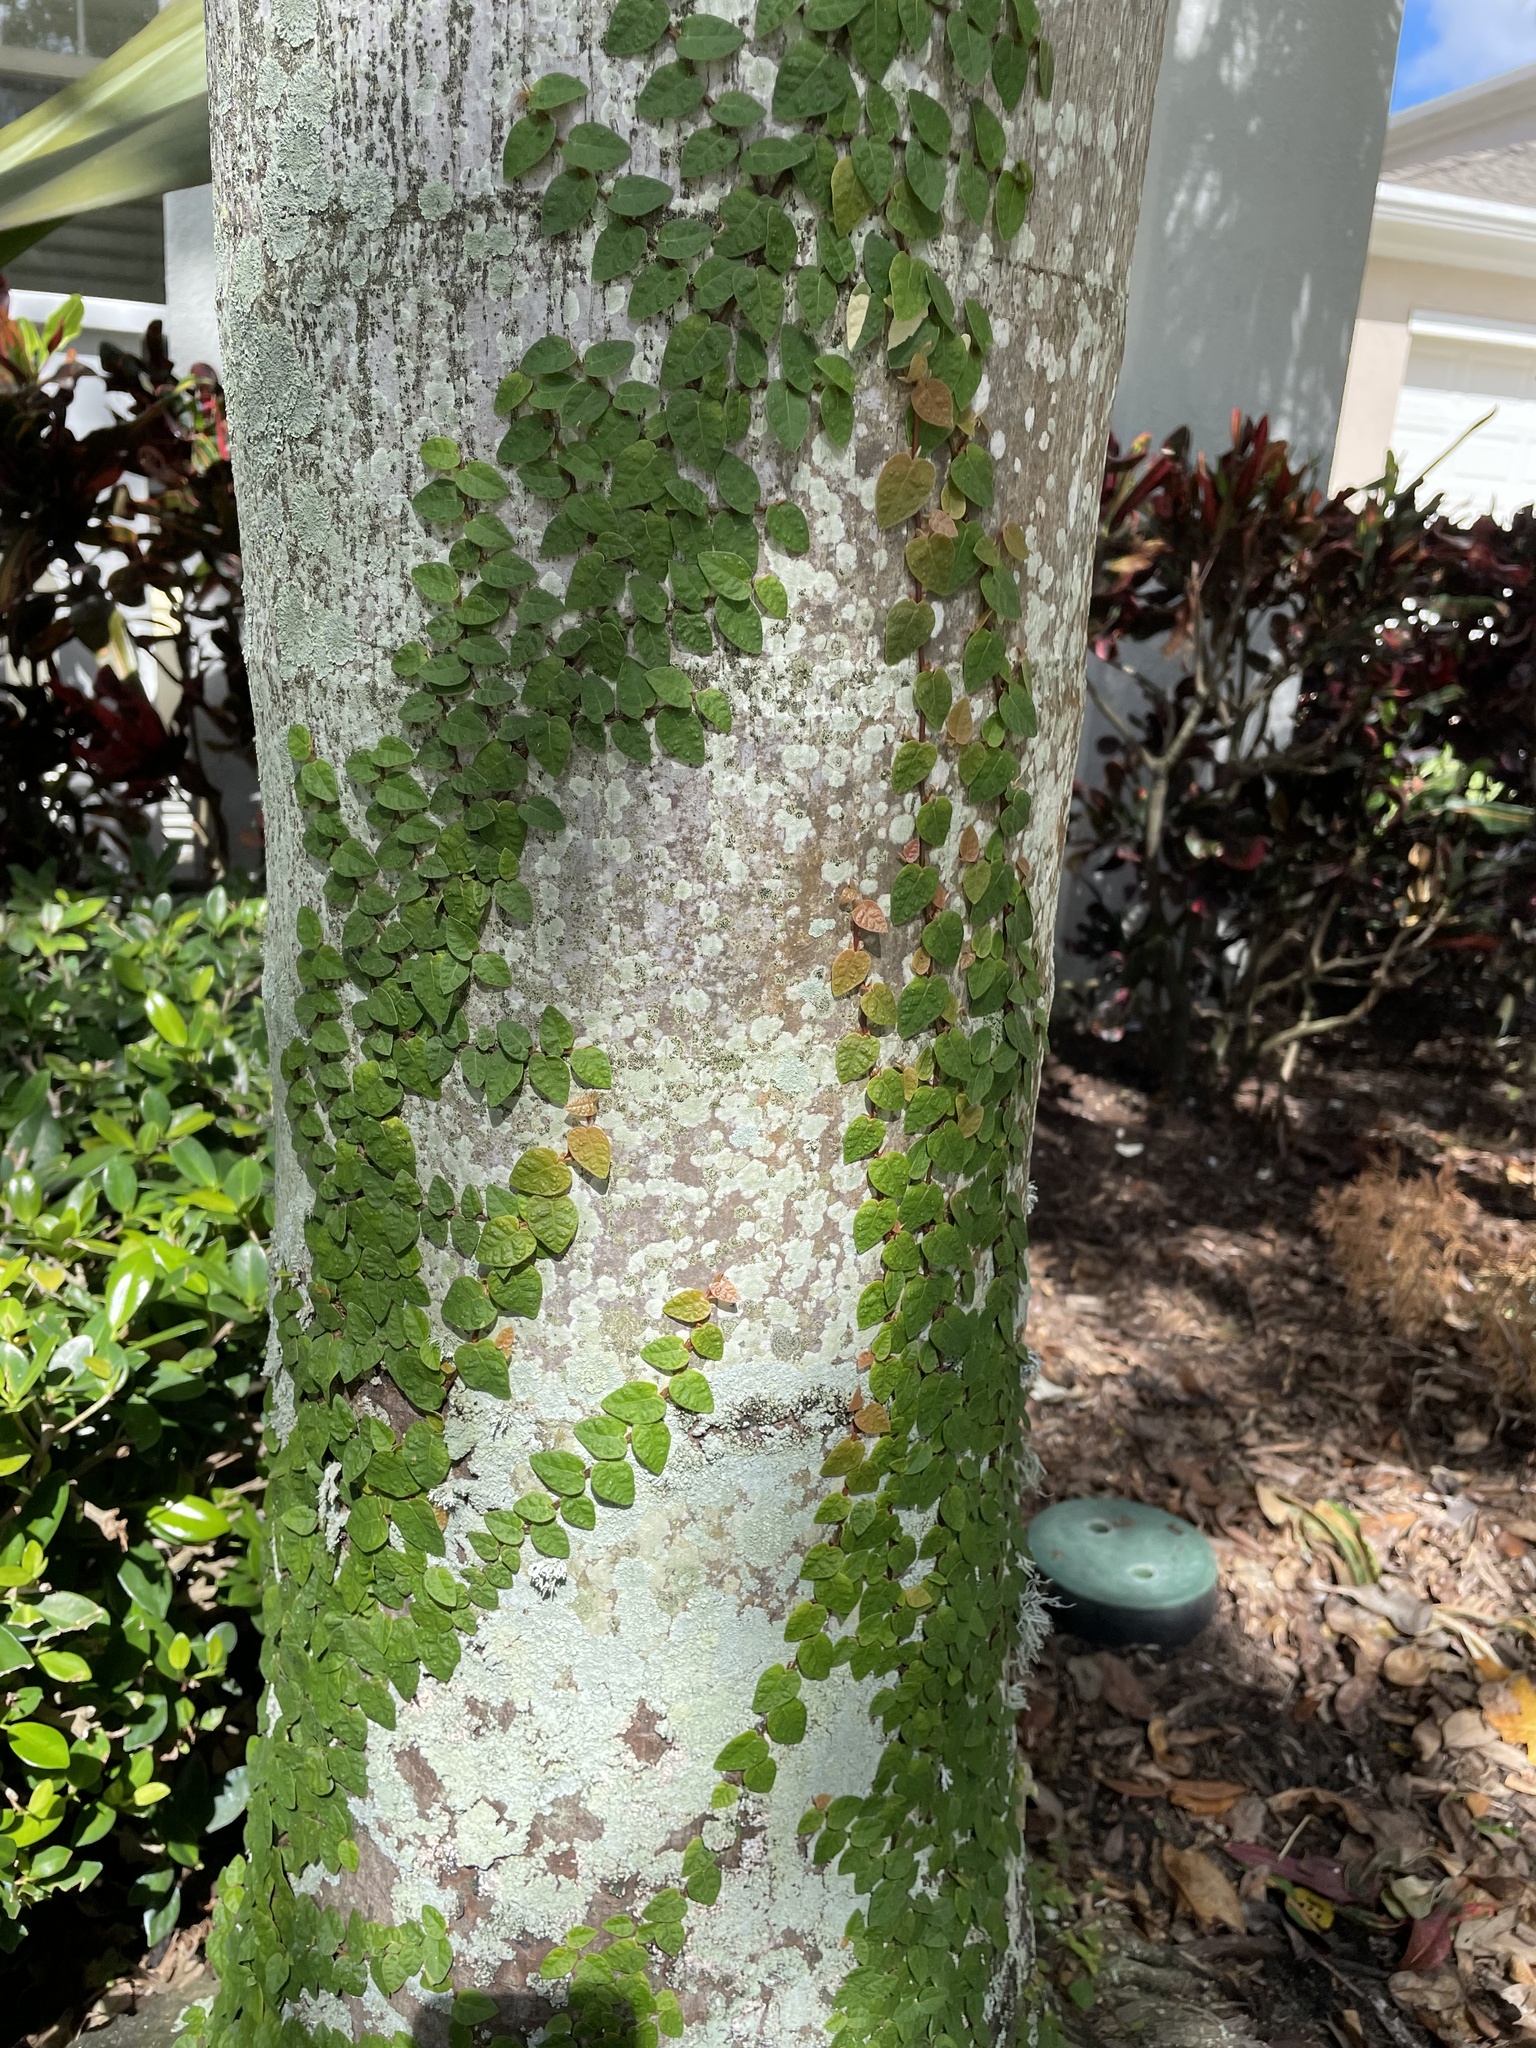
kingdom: Plantae
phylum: Tracheophyta
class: Magnoliopsida
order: Rosales
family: Moraceae
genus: Ficus
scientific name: Ficus pumila
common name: Climbingfig
